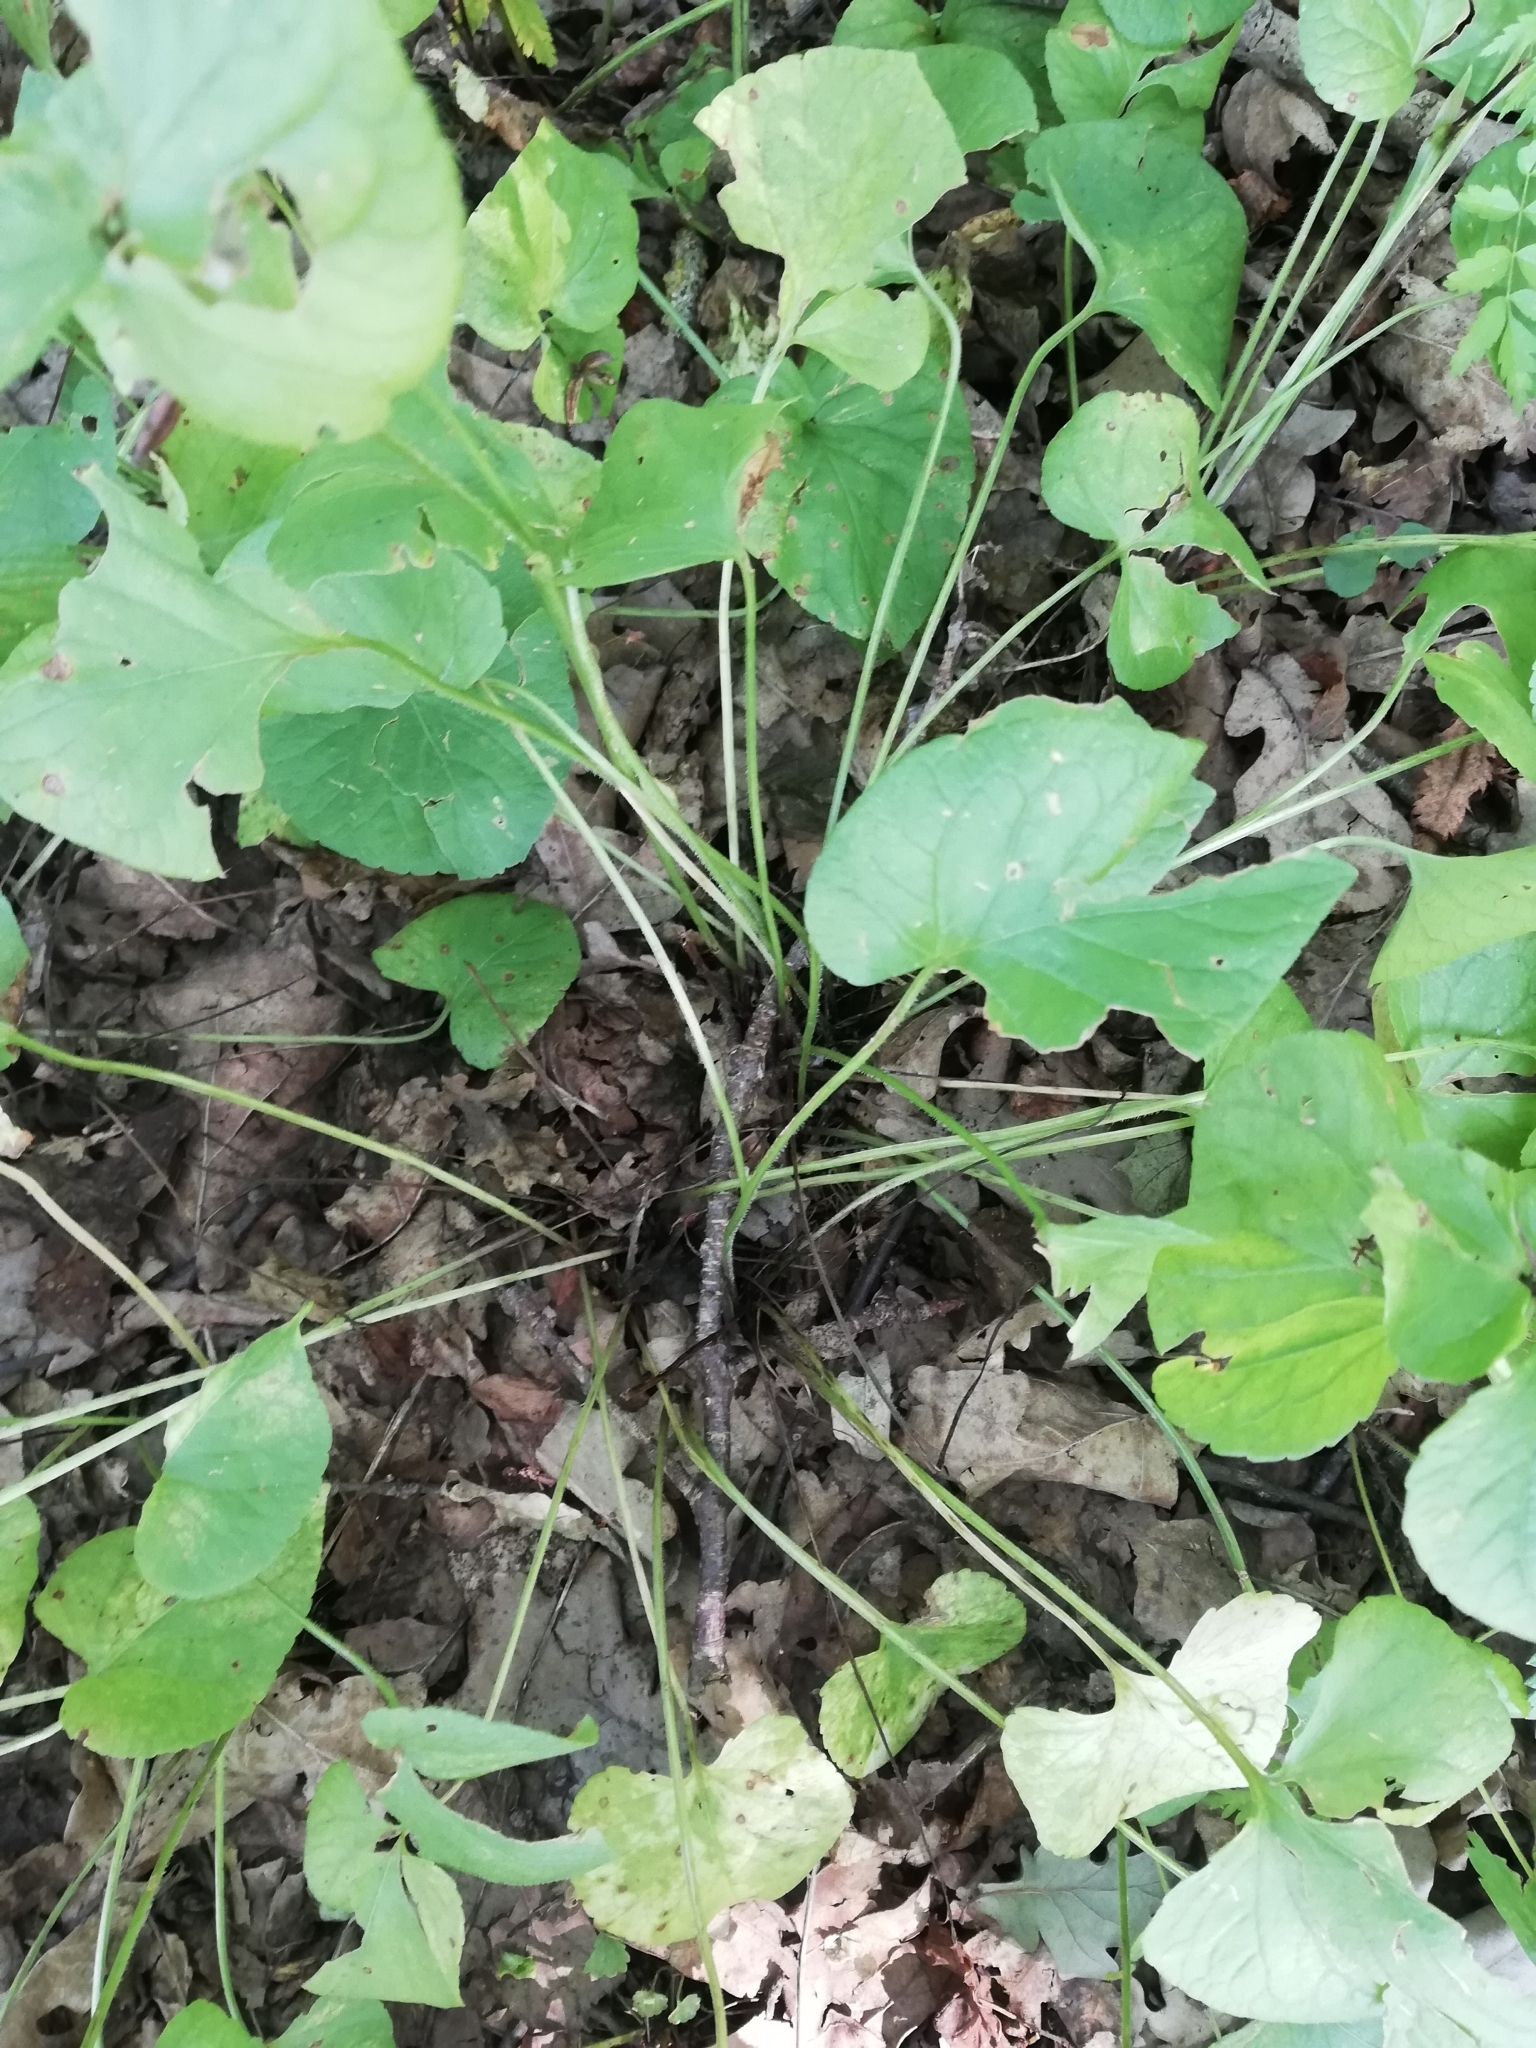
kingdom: Plantae
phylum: Tracheophyta
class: Magnoliopsida
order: Malpighiales
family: Violaceae
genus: Viola
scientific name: Viola mirabilis
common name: Wonder violet
